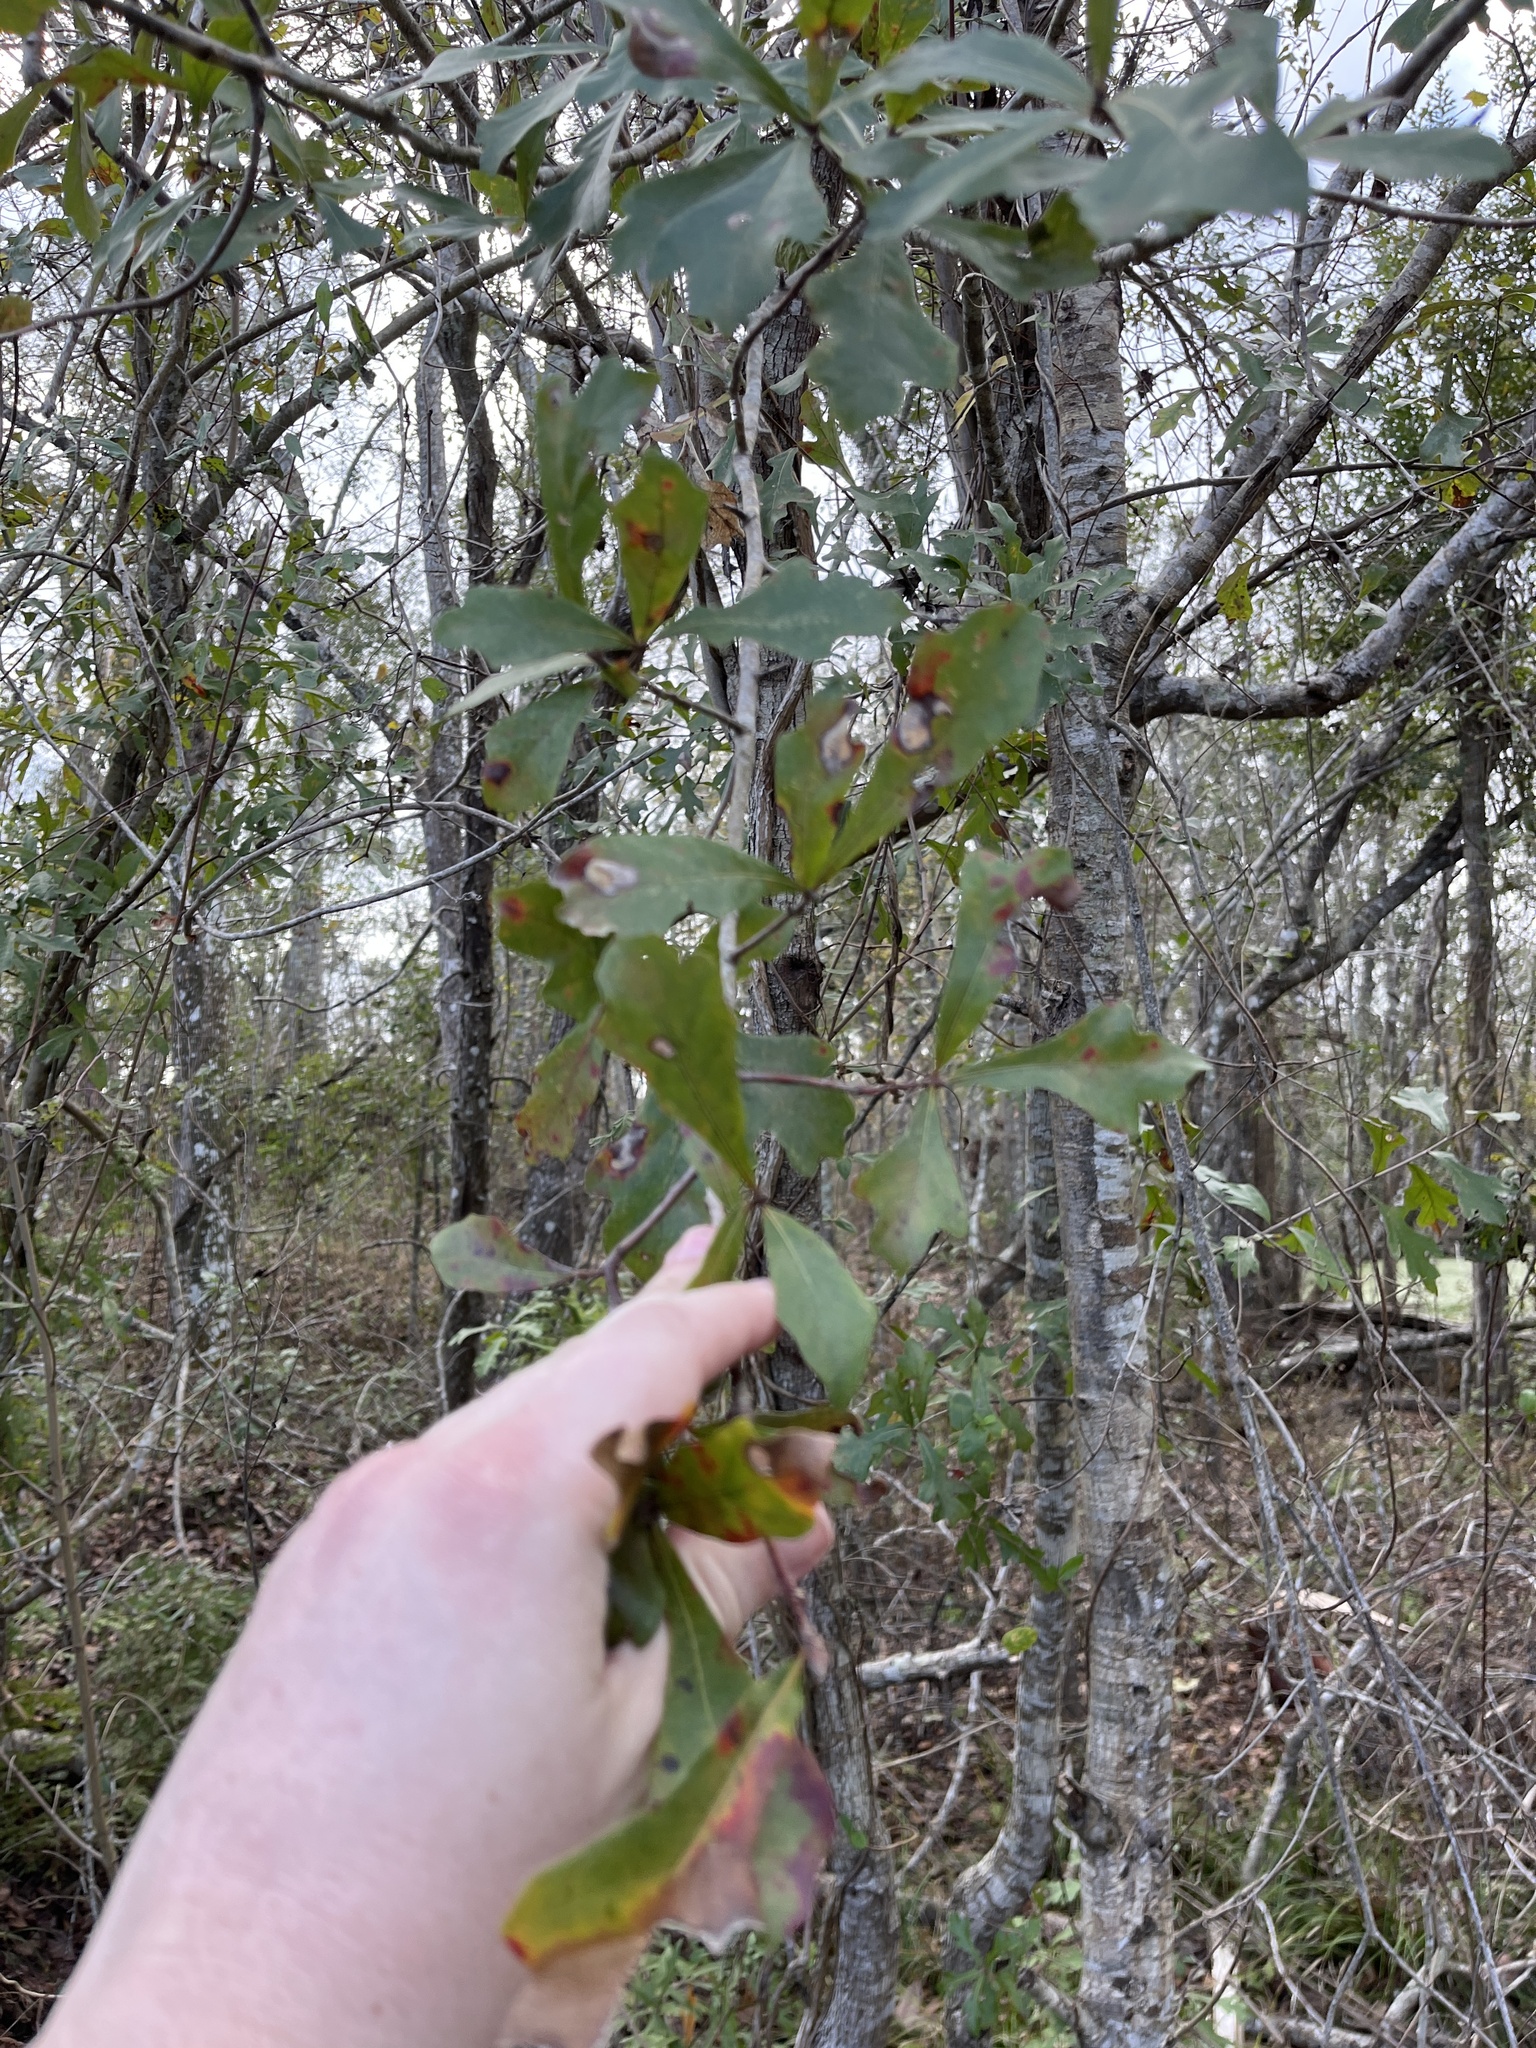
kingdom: Plantae
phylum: Tracheophyta
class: Magnoliopsida
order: Fagales
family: Fagaceae
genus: Quercus
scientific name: Quercus nigra
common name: Water oak
